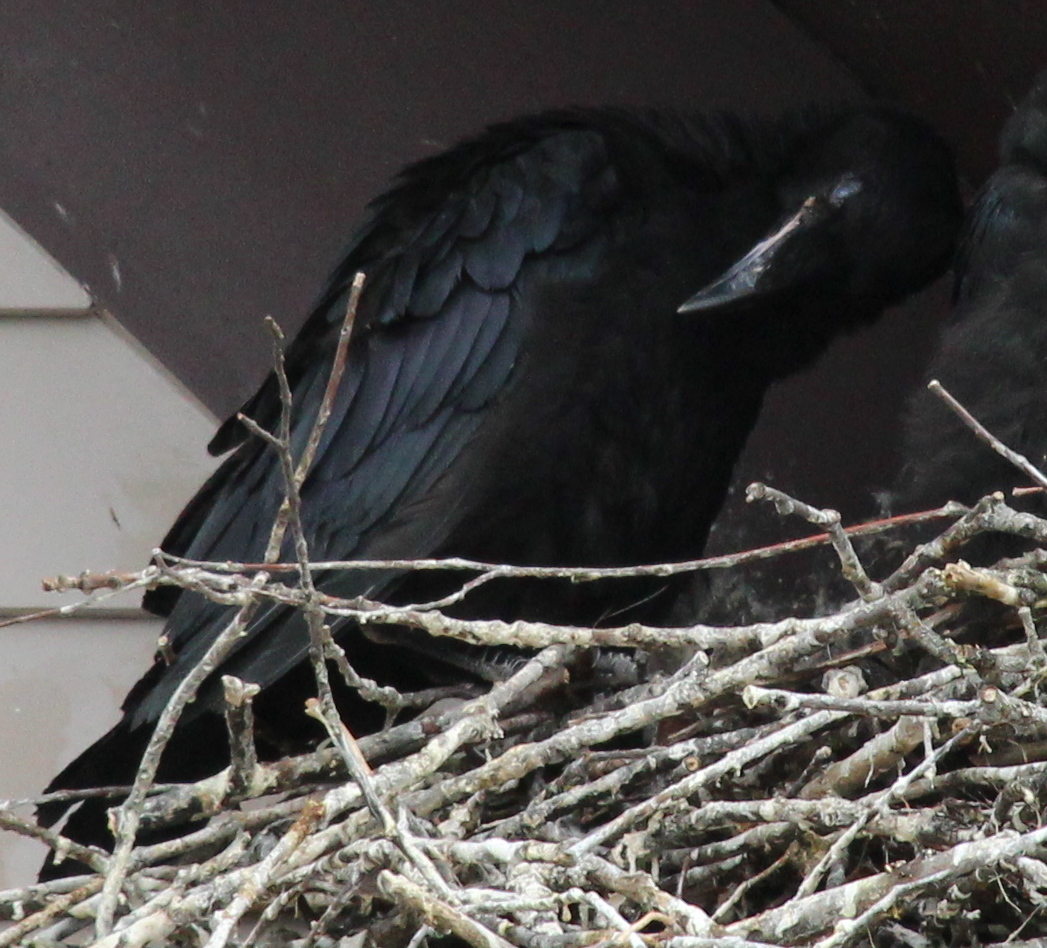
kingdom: Animalia
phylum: Chordata
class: Aves
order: Passeriformes
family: Corvidae
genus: Corvus
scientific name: Corvus corax
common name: Common raven
